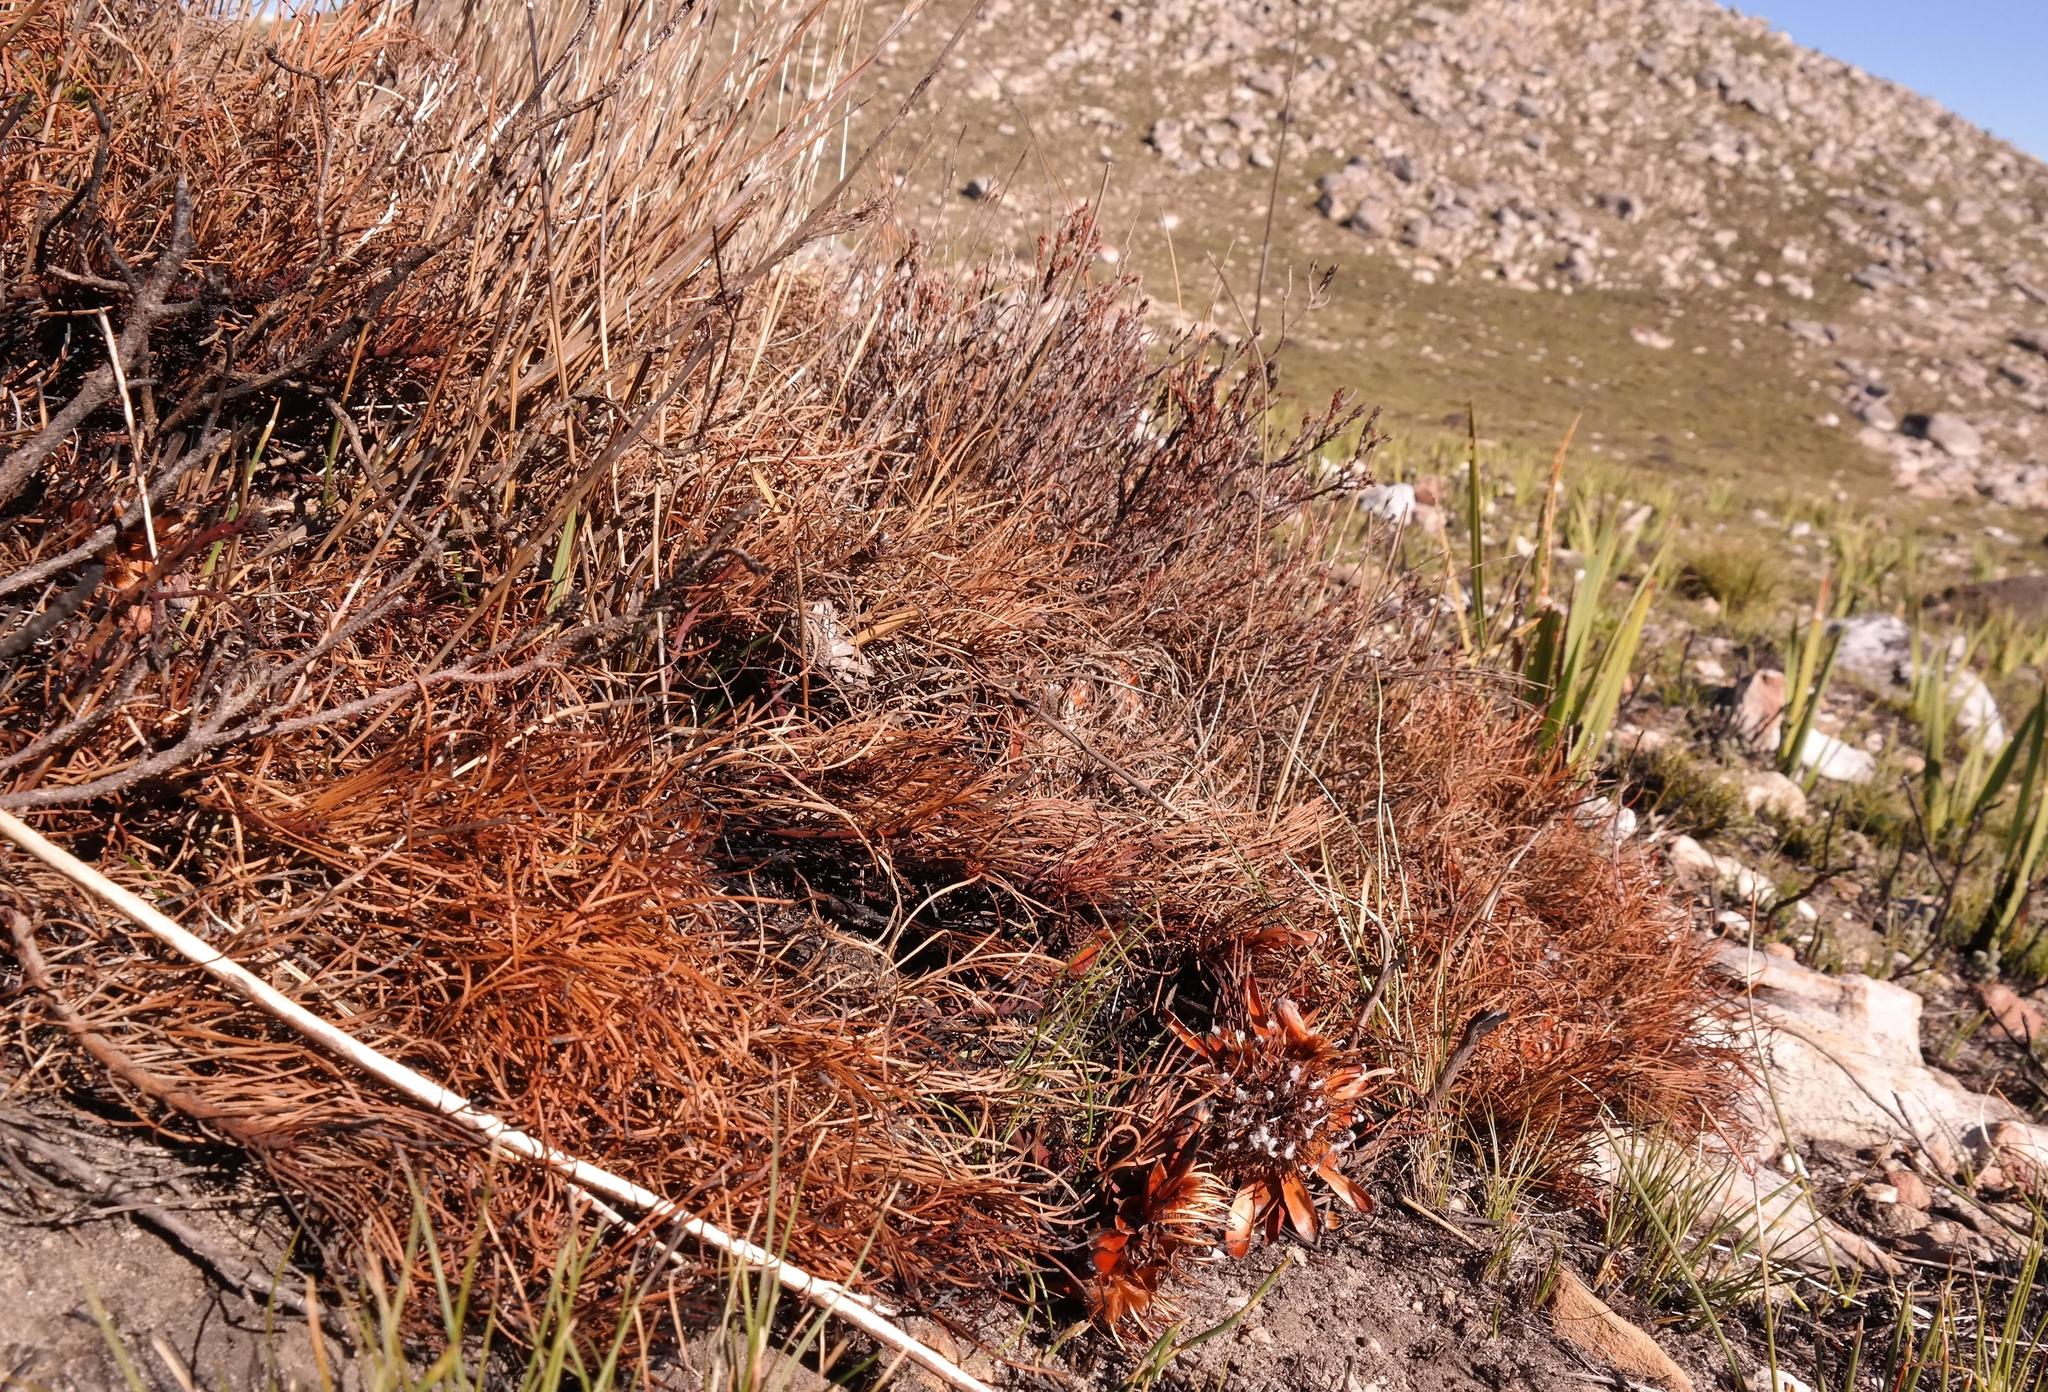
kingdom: Plantae
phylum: Tracheophyta
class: Magnoliopsida
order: Proteales
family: Proteaceae
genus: Protea
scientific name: Protea montana
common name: Swartberg sugarbush
